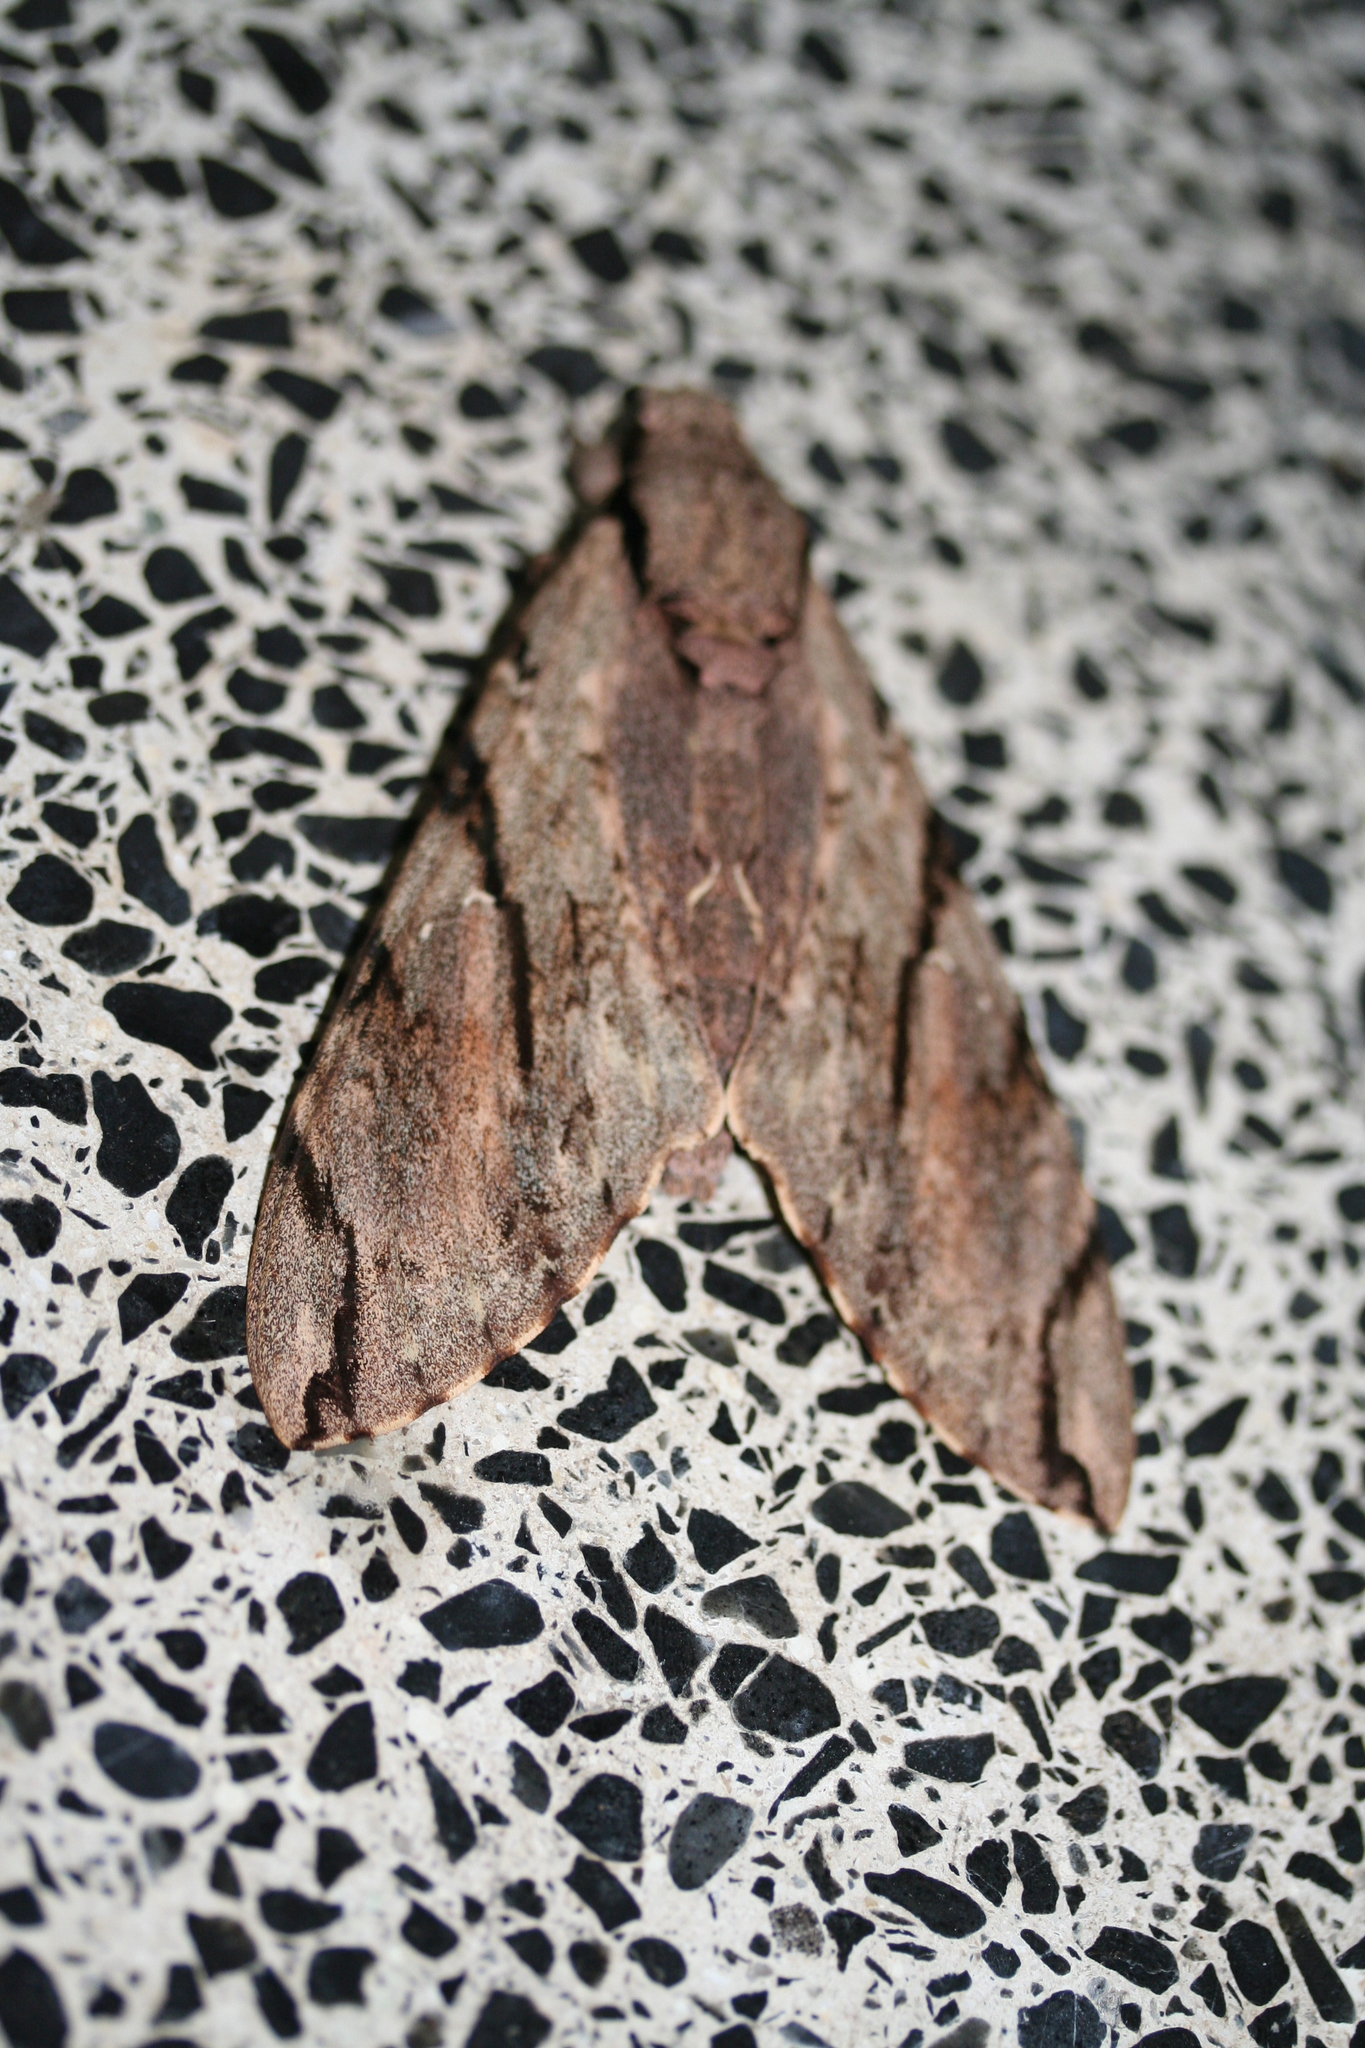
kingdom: Animalia
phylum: Arthropoda
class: Insecta
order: Lepidoptera
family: Sphingidae
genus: Xanthopan
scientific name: Xanthopan morganii
